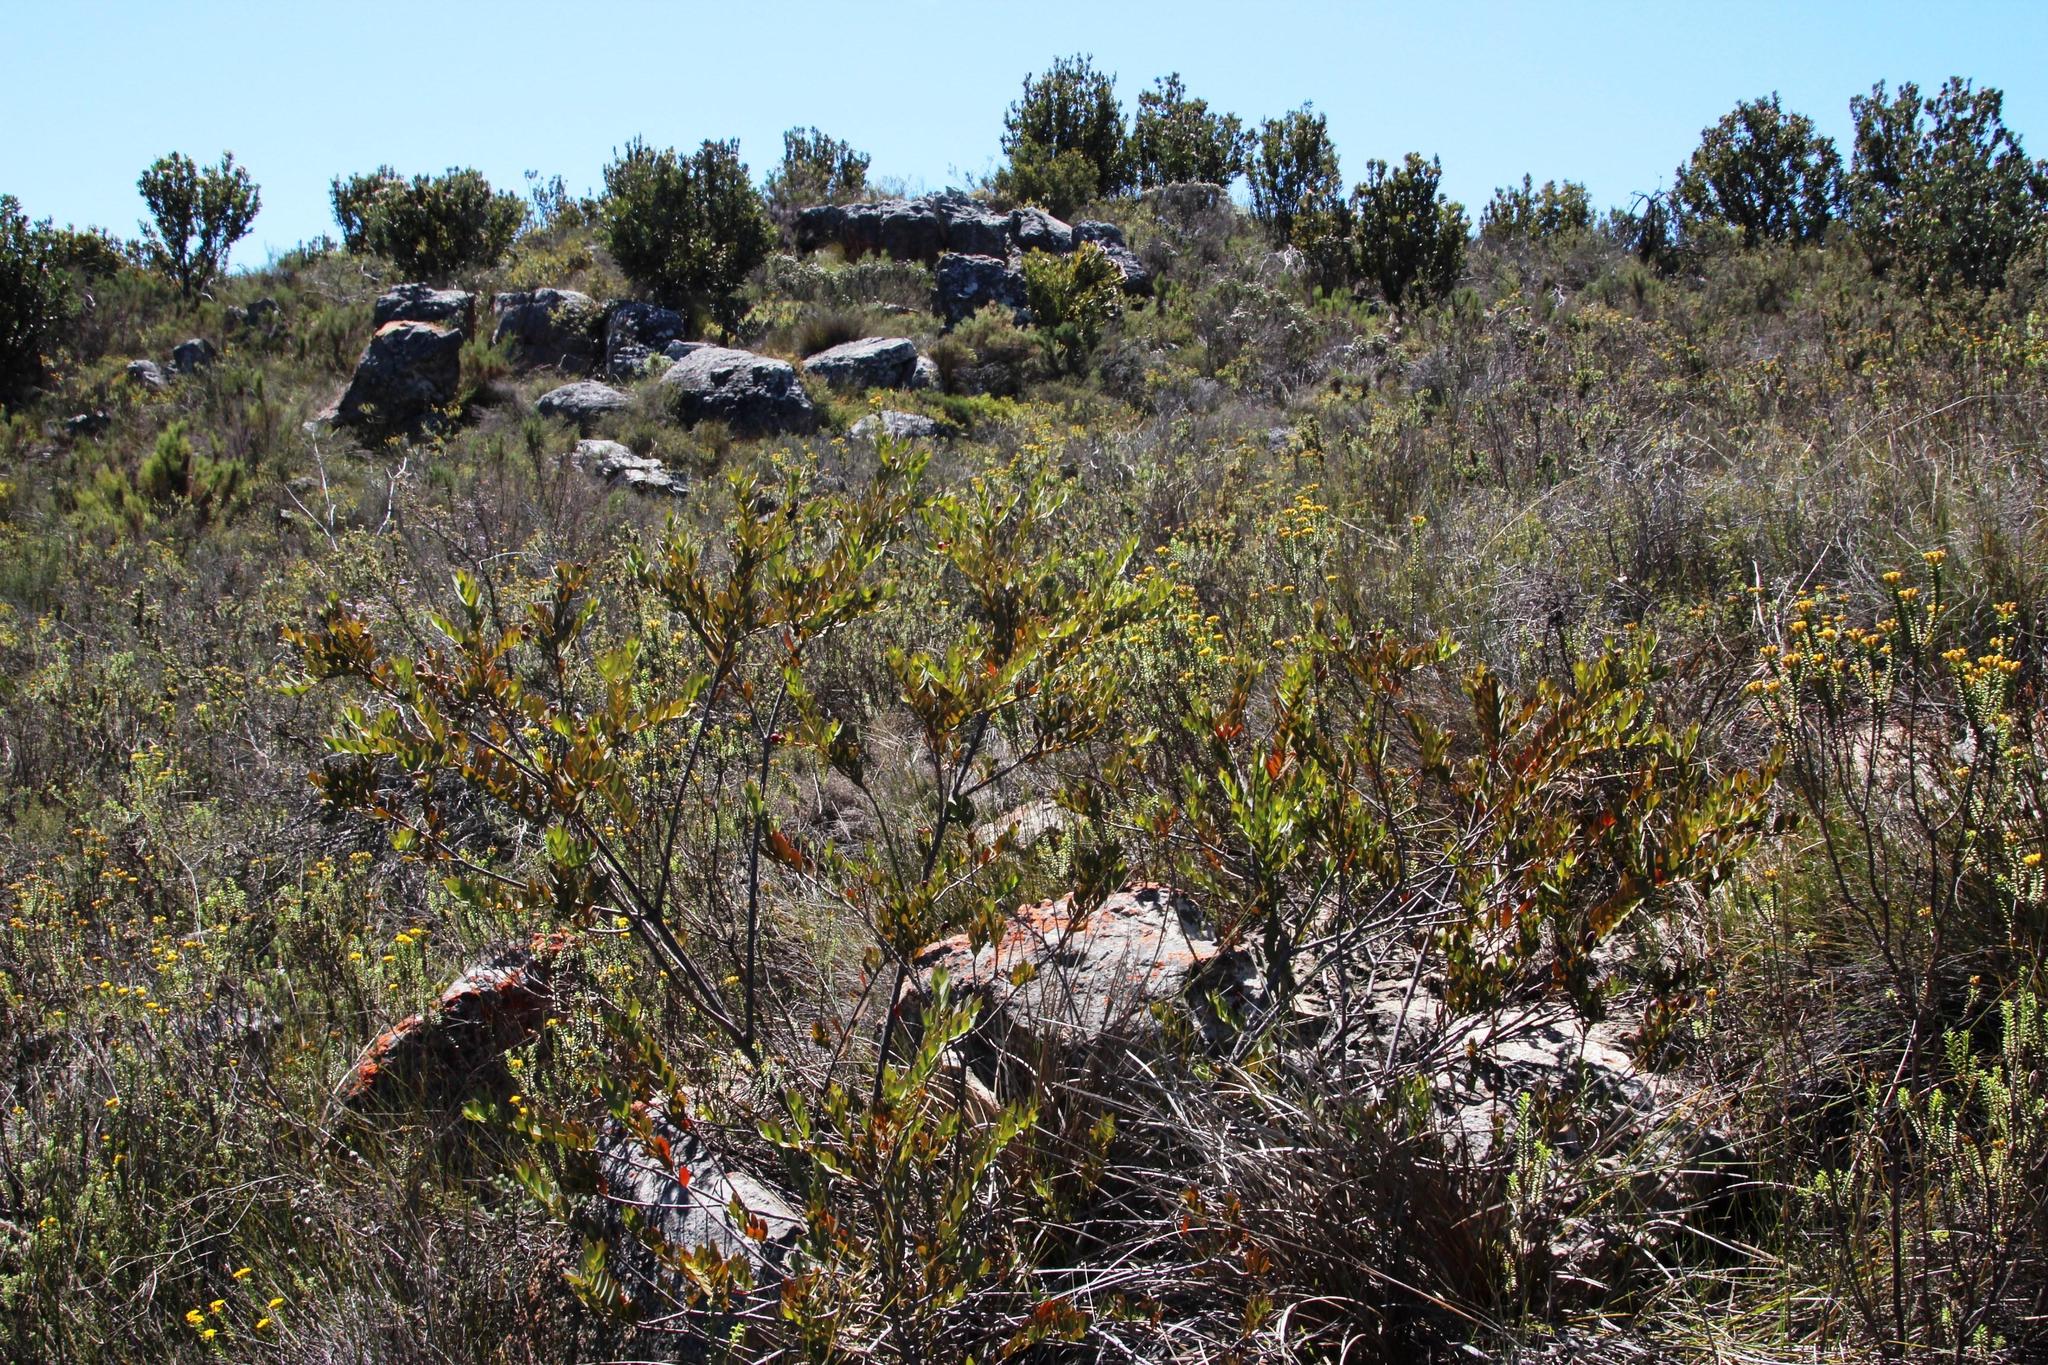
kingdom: Plantae
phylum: Tracheophyta
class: Magnoliopsida
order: Santalales
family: Santalaceae
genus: Osyris
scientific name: Osyris compressa
